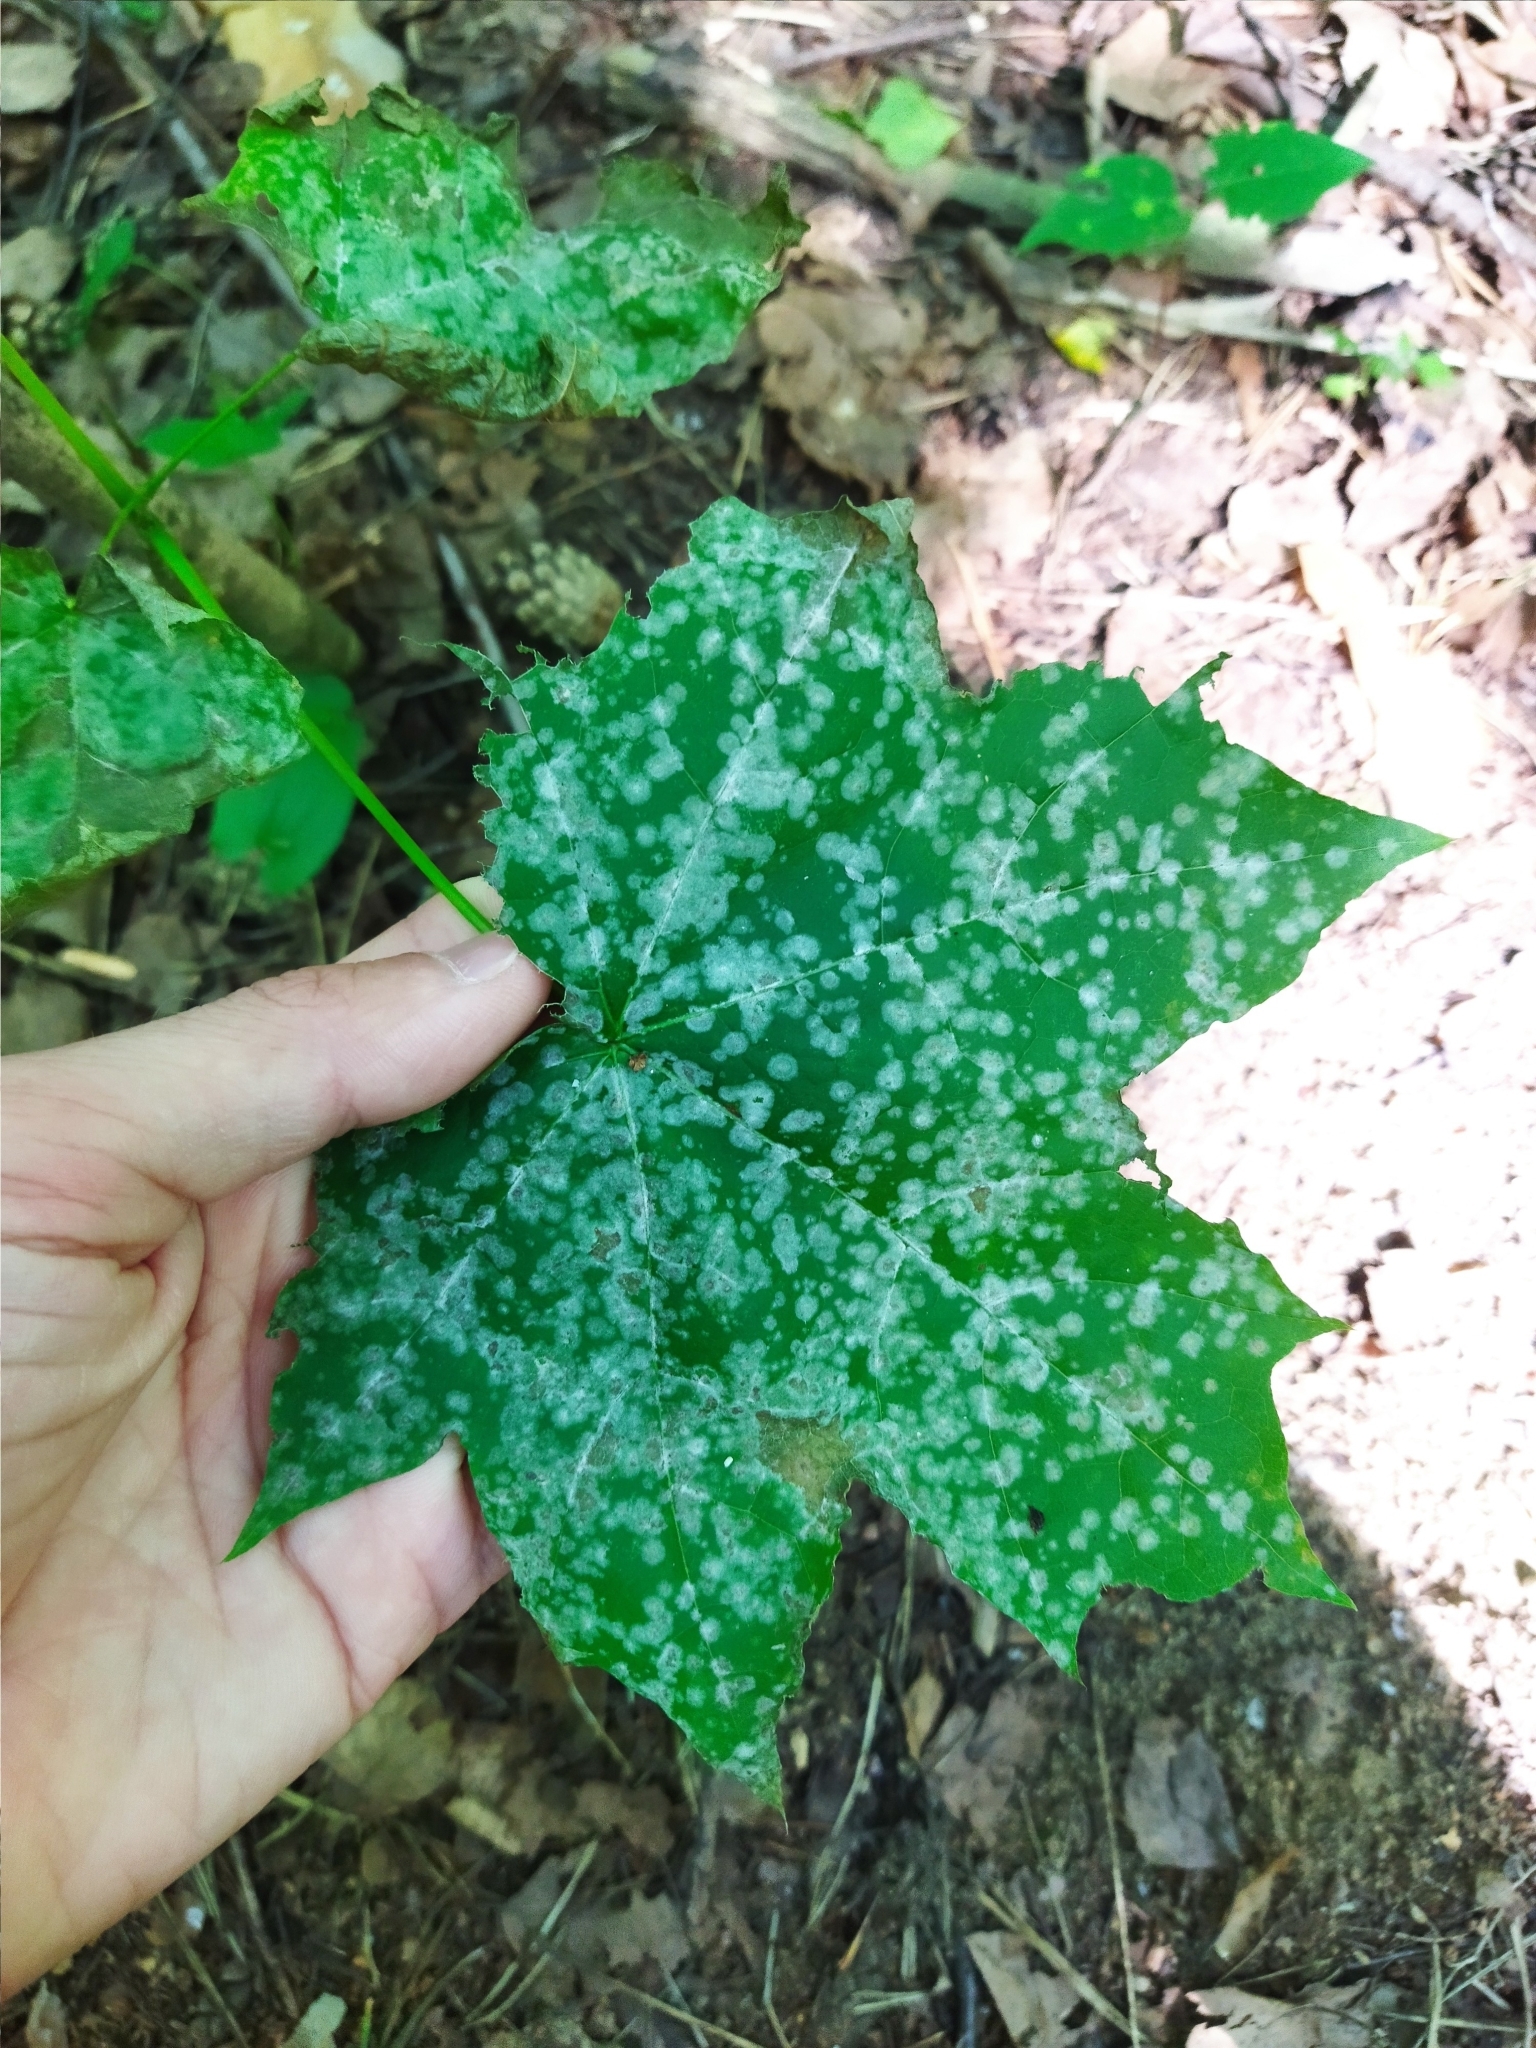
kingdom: Fungi
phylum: Ascomycota
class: Leotiomycetes
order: Helotiales
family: Erysiphaceae
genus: Sawadaea
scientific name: Sawadaea tulasnei
